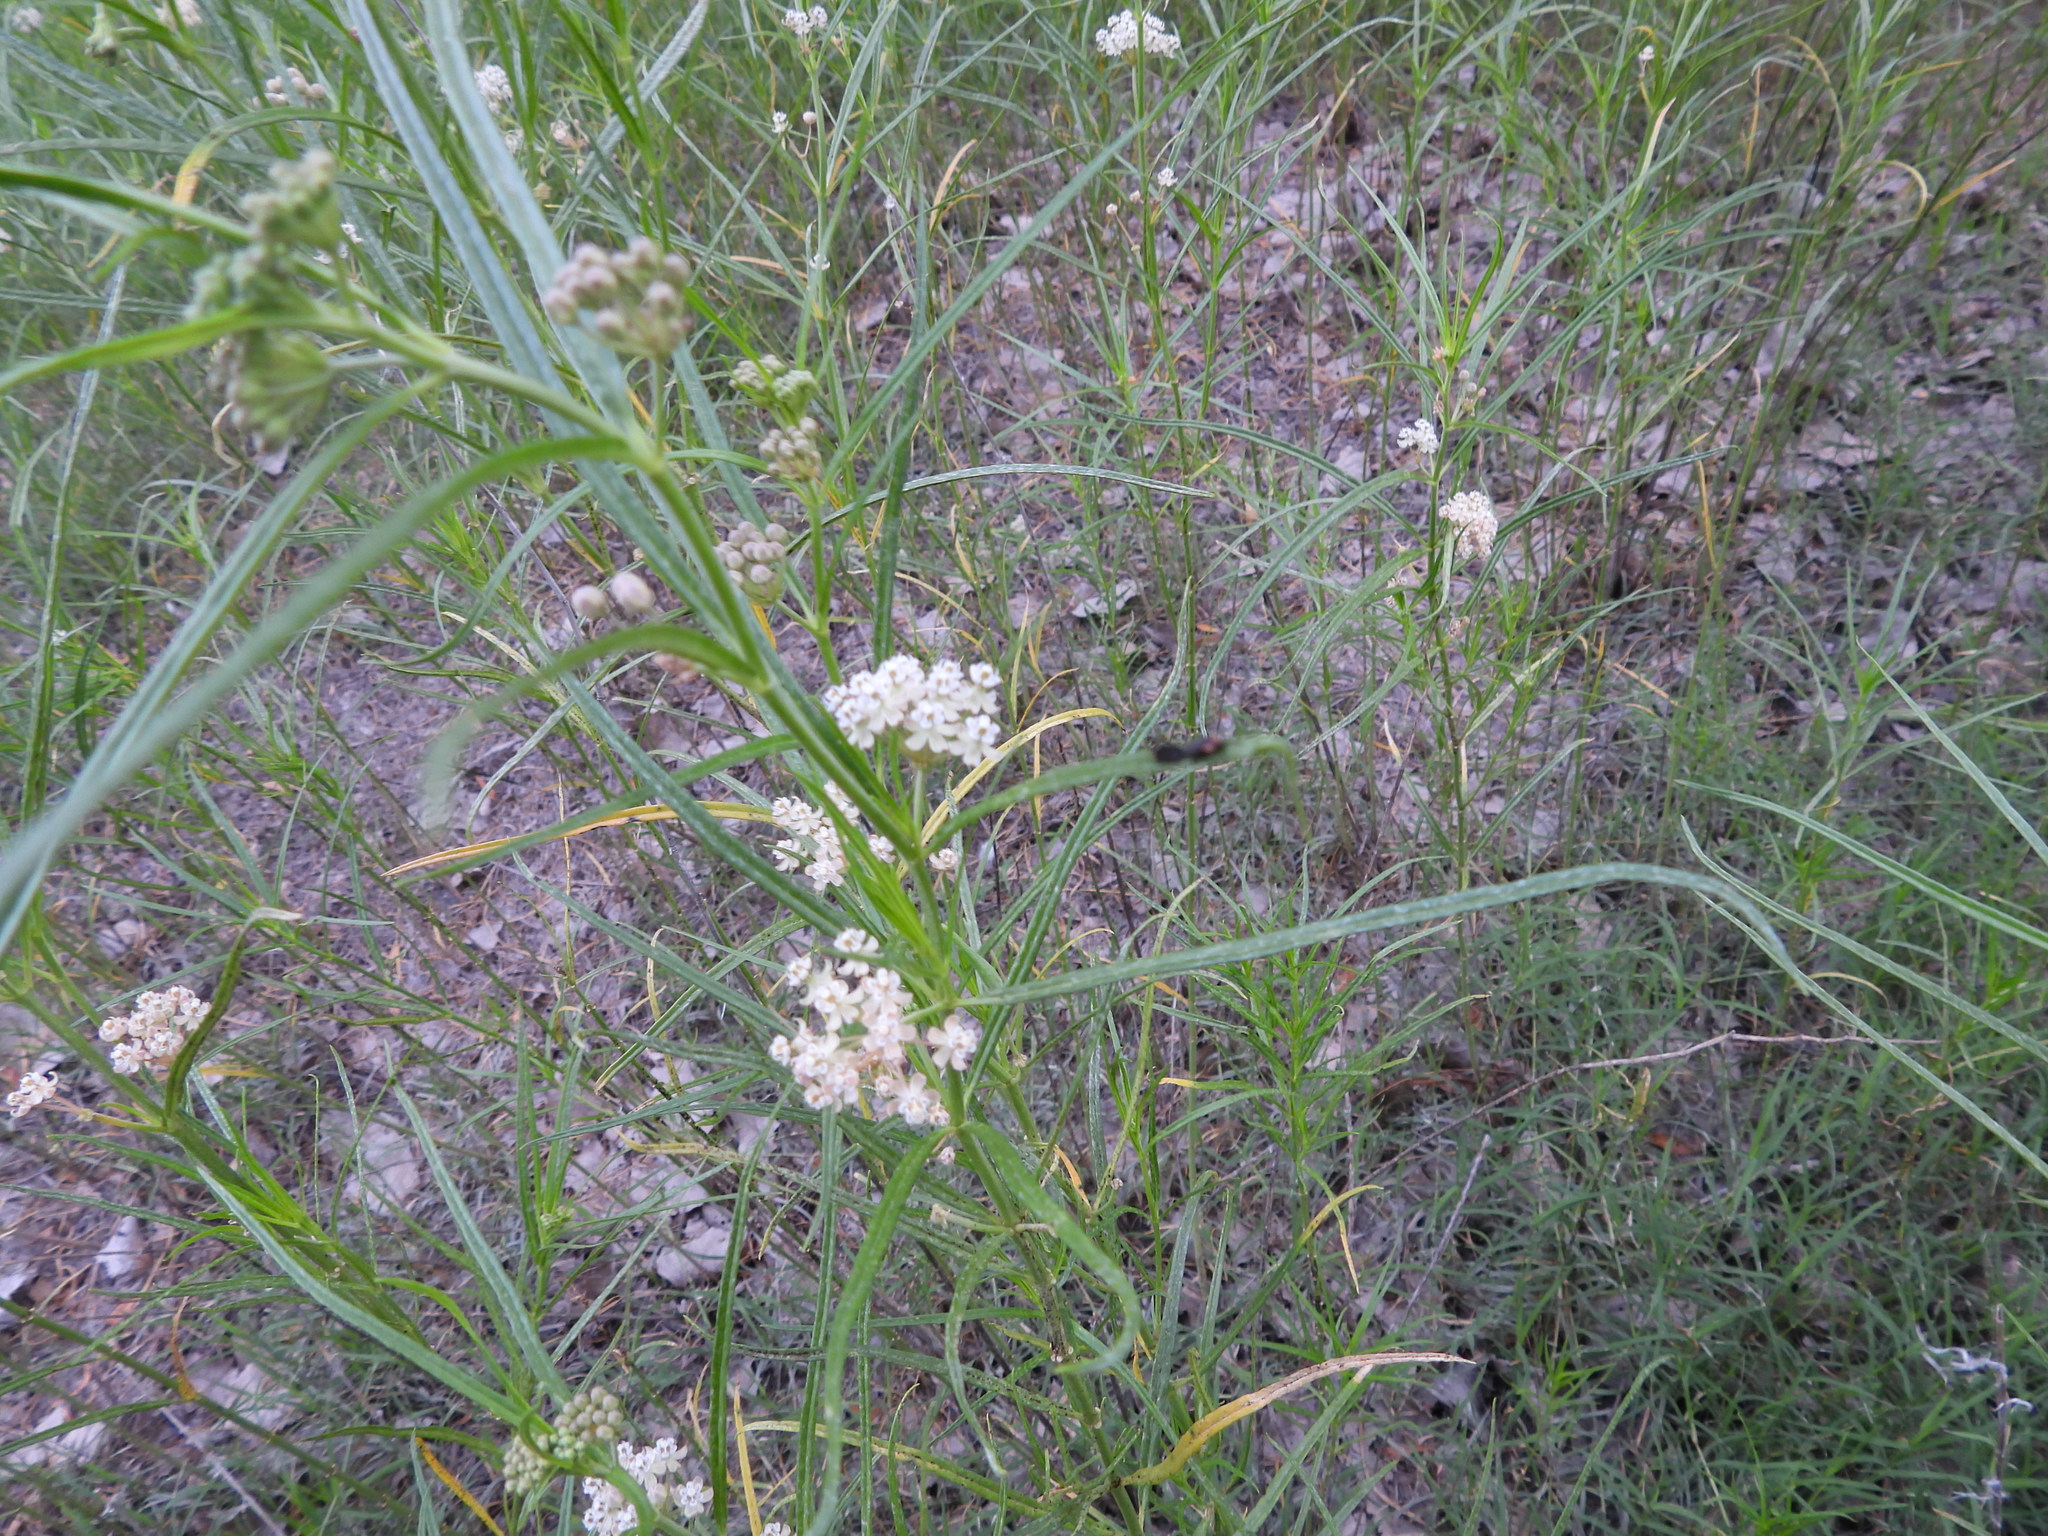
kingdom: Animalia
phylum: Arthropoda
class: Insecta
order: Coleoptera
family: Lampyridae
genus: Pyropyga
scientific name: Pyropyga
